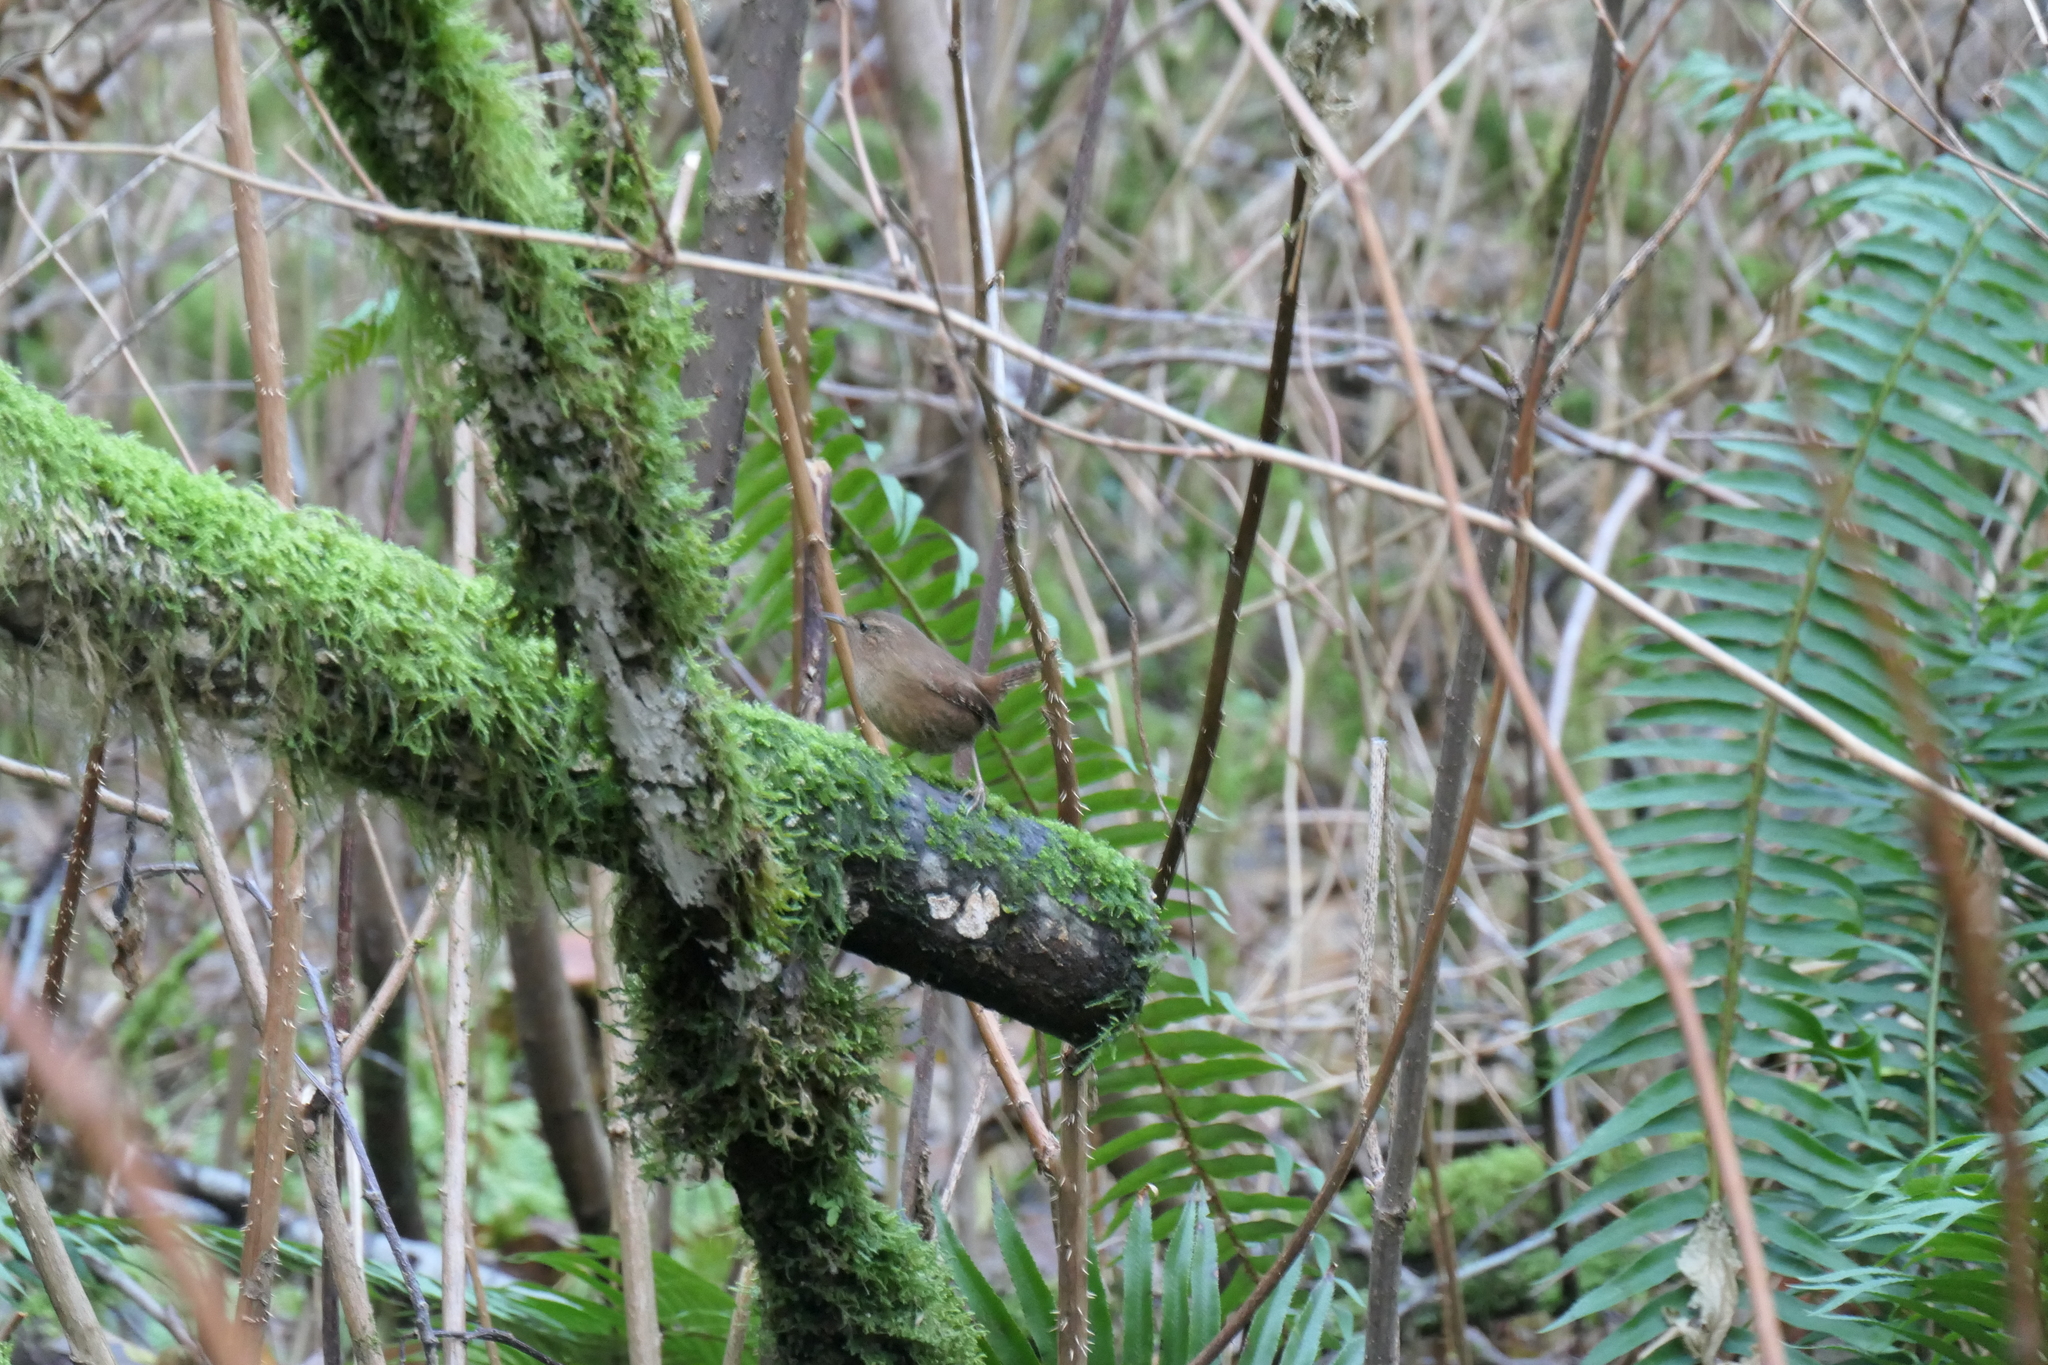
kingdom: Animalia
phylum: Chordata
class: Aves
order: Passeriformes
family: Troglodytidae
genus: Troglodytes
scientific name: Troglodytes pacificus
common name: Pacific wren
